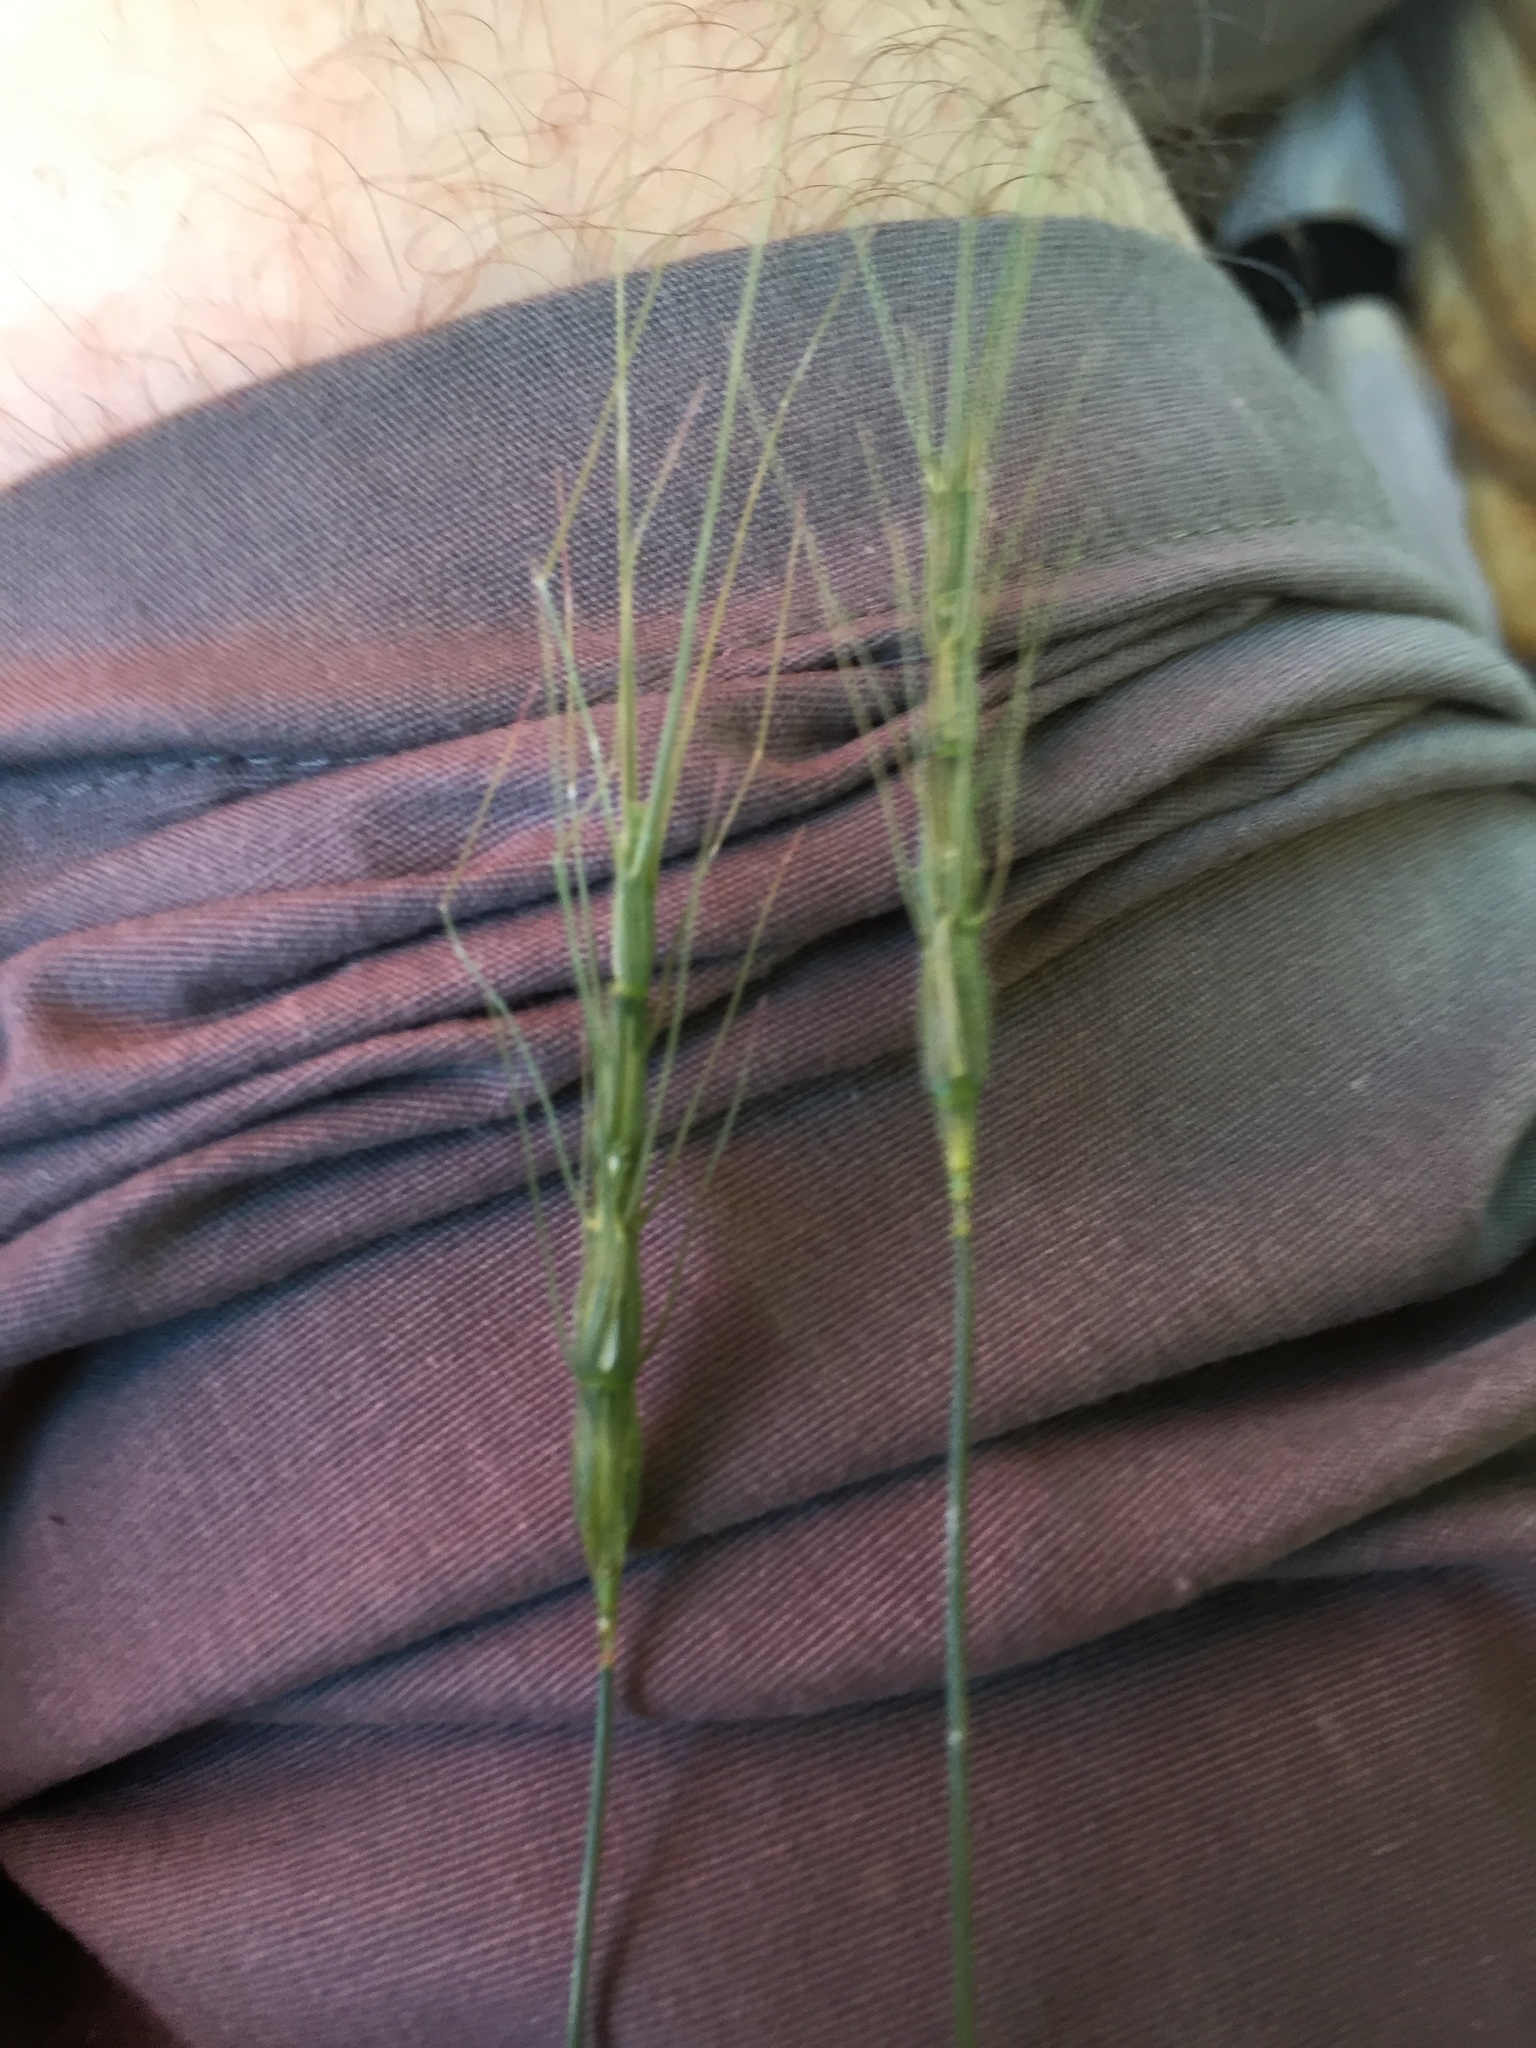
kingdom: Plantae
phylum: Tracheophyta
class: Liliopsida
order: Poales
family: Poaceae
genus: Aegilops
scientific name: Aegilops cylindrica
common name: Jointed goatgrass
